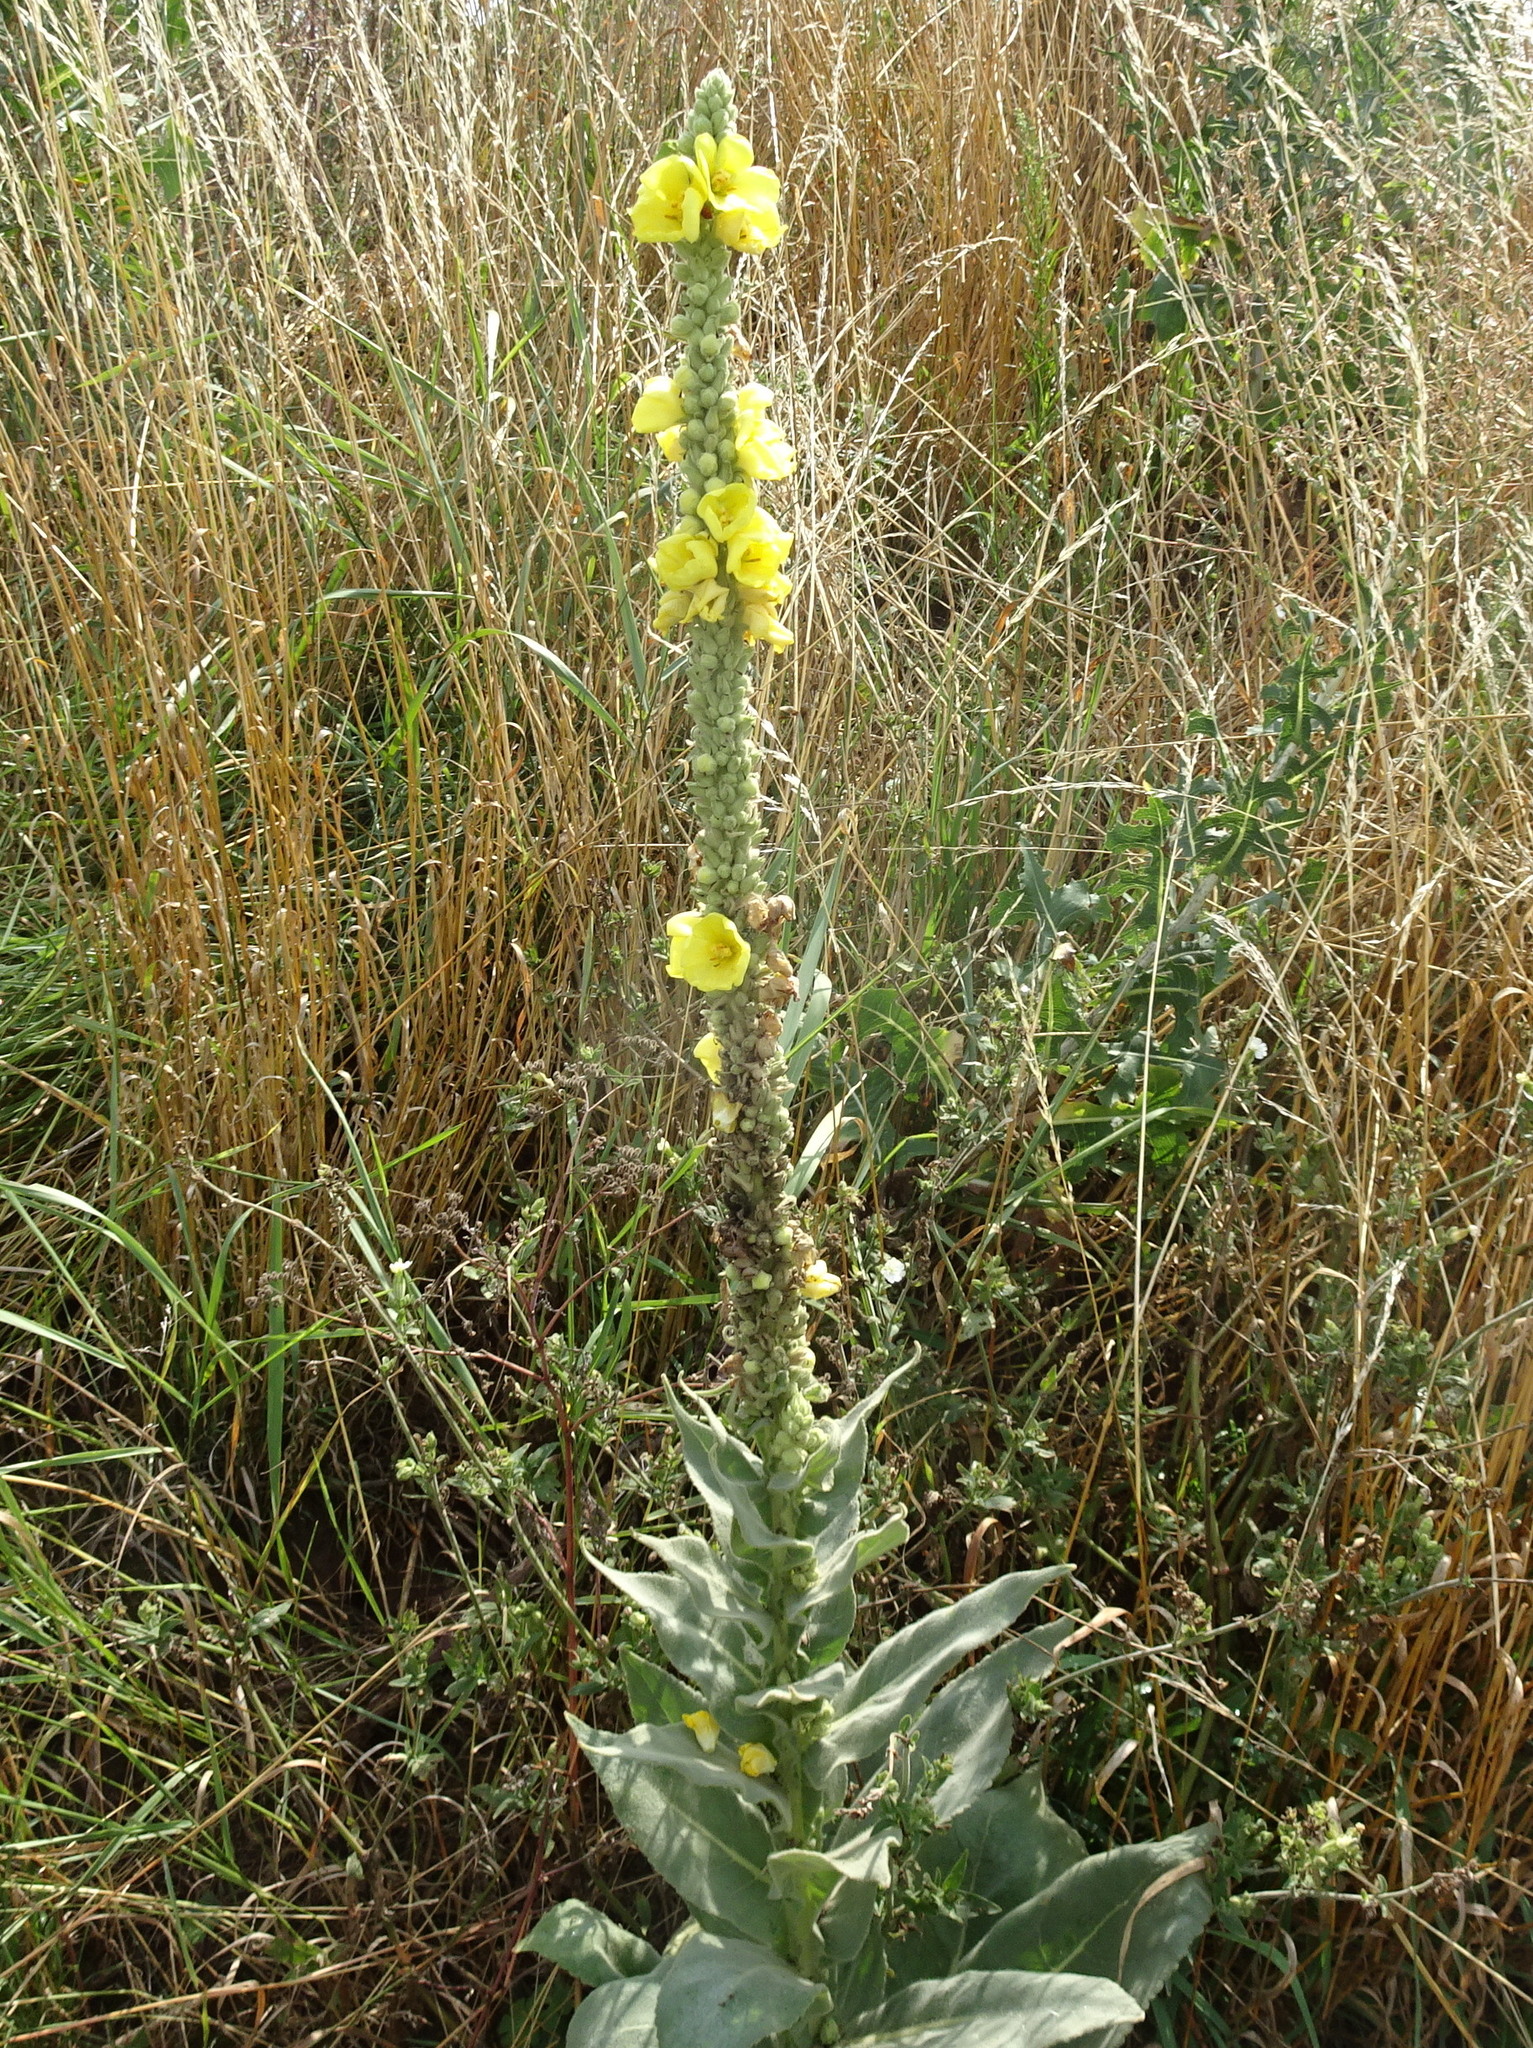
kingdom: Plantae
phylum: Tracheophyta
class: Magnoliopsida
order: Lamiales
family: Scrophulariaceae
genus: Verbascum
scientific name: Verbascum thapsus
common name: Common mullein
